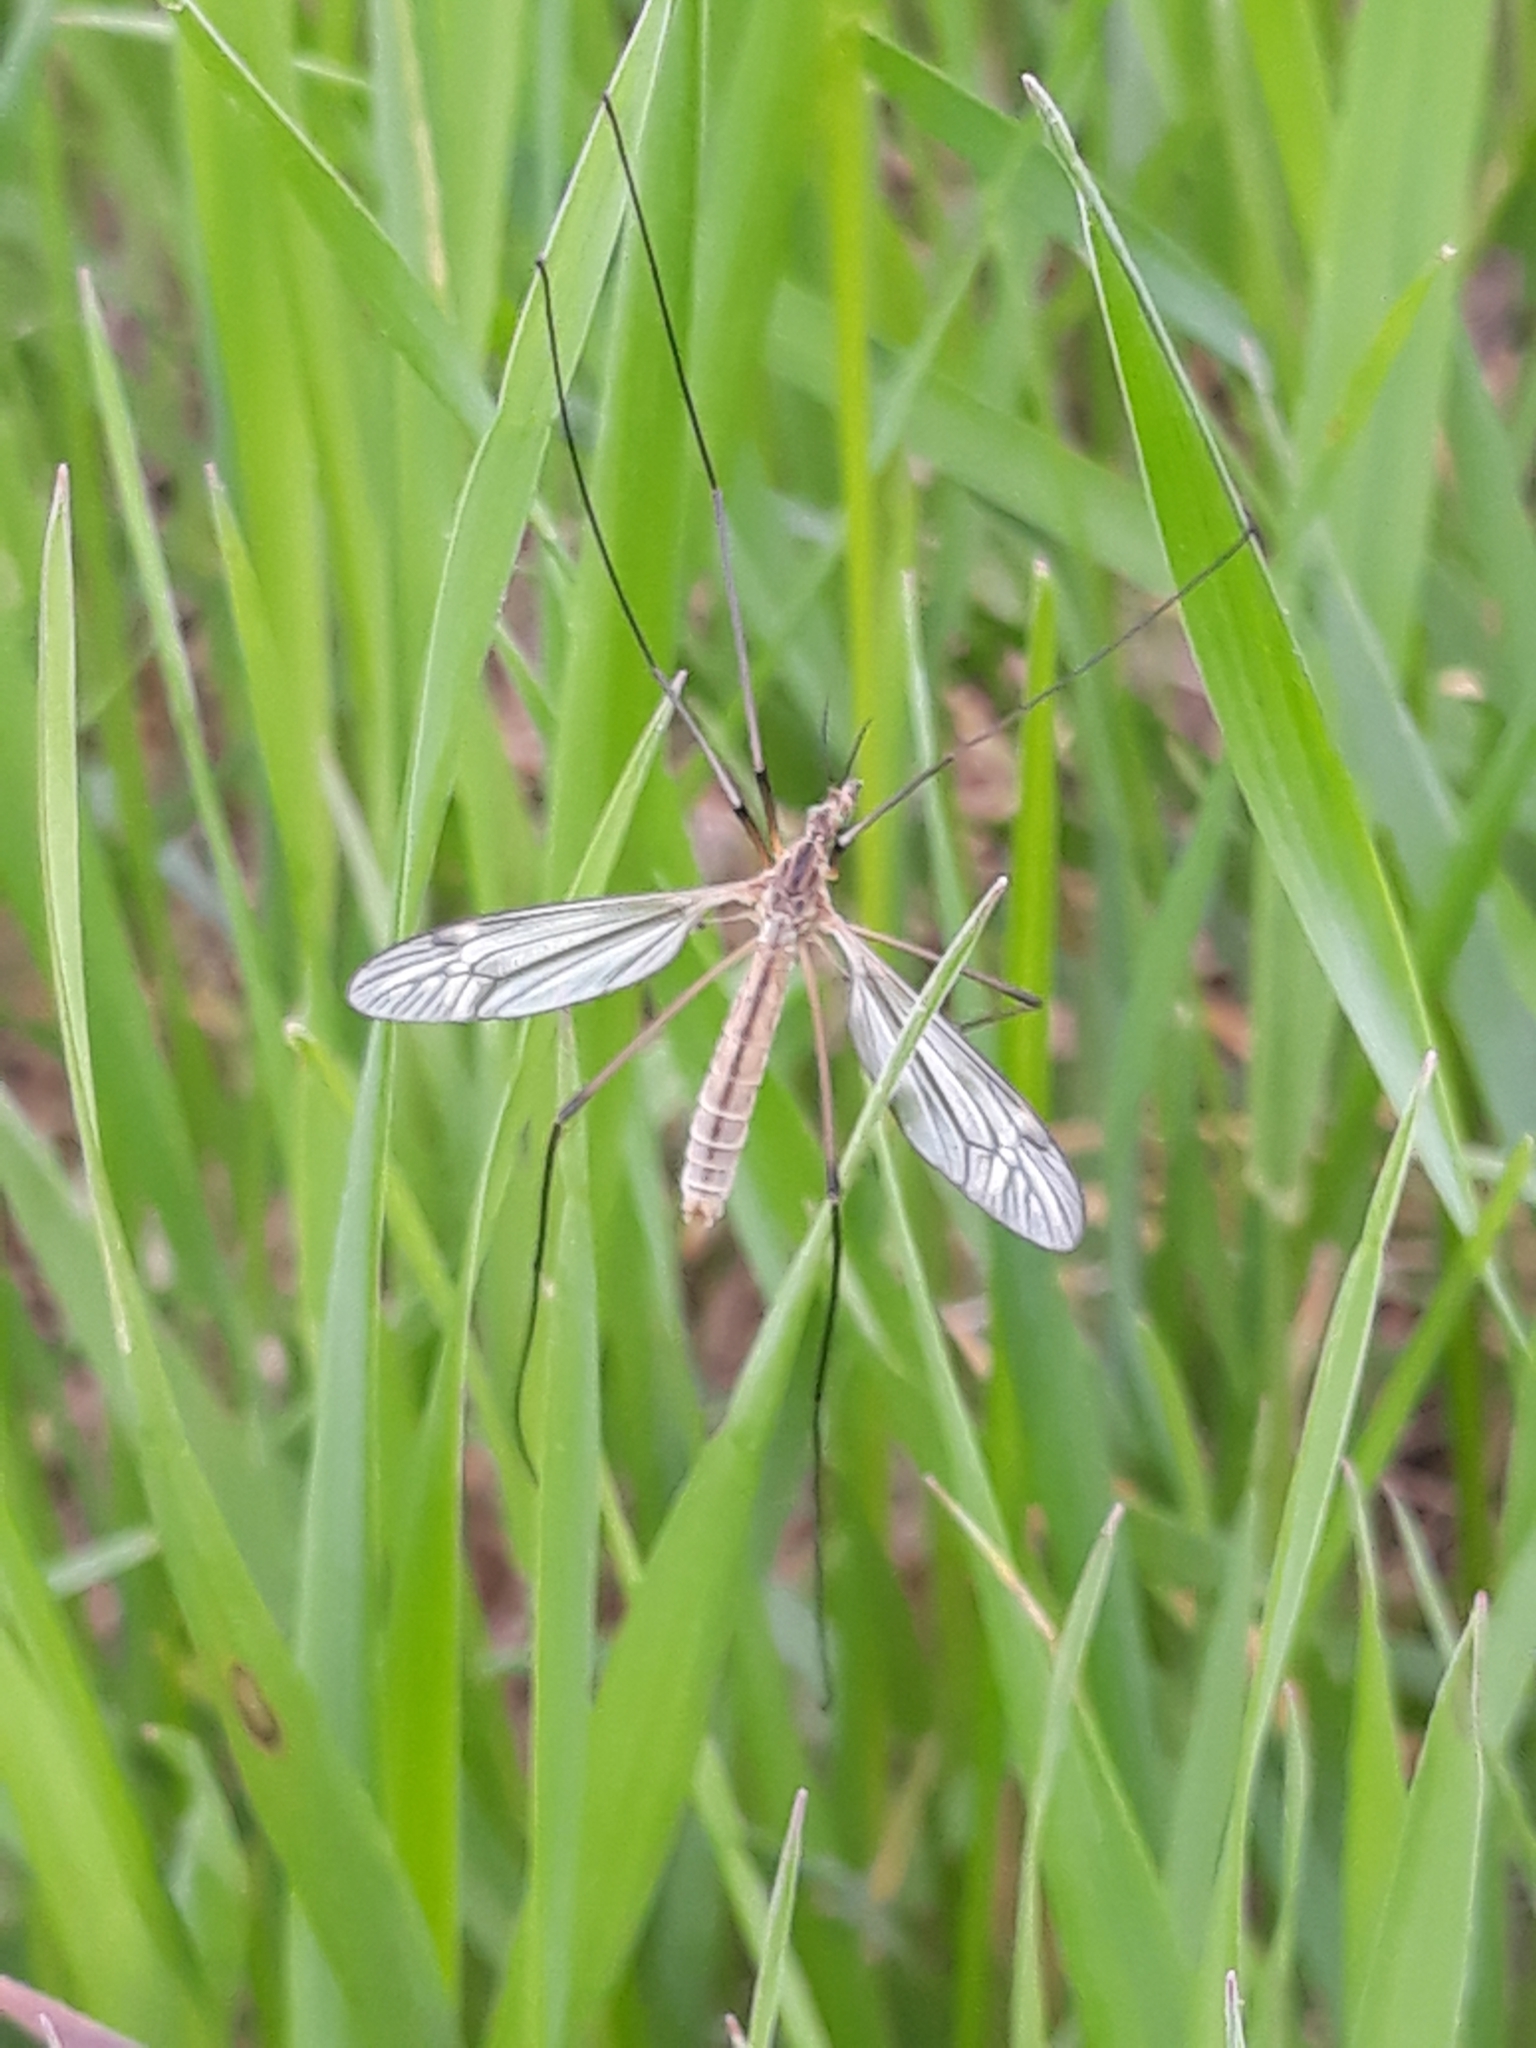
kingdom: Animalia
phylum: Arthropoda
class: Insecta
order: Diptera
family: Tipulidae
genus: Tipula
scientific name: Tipula vernalis
